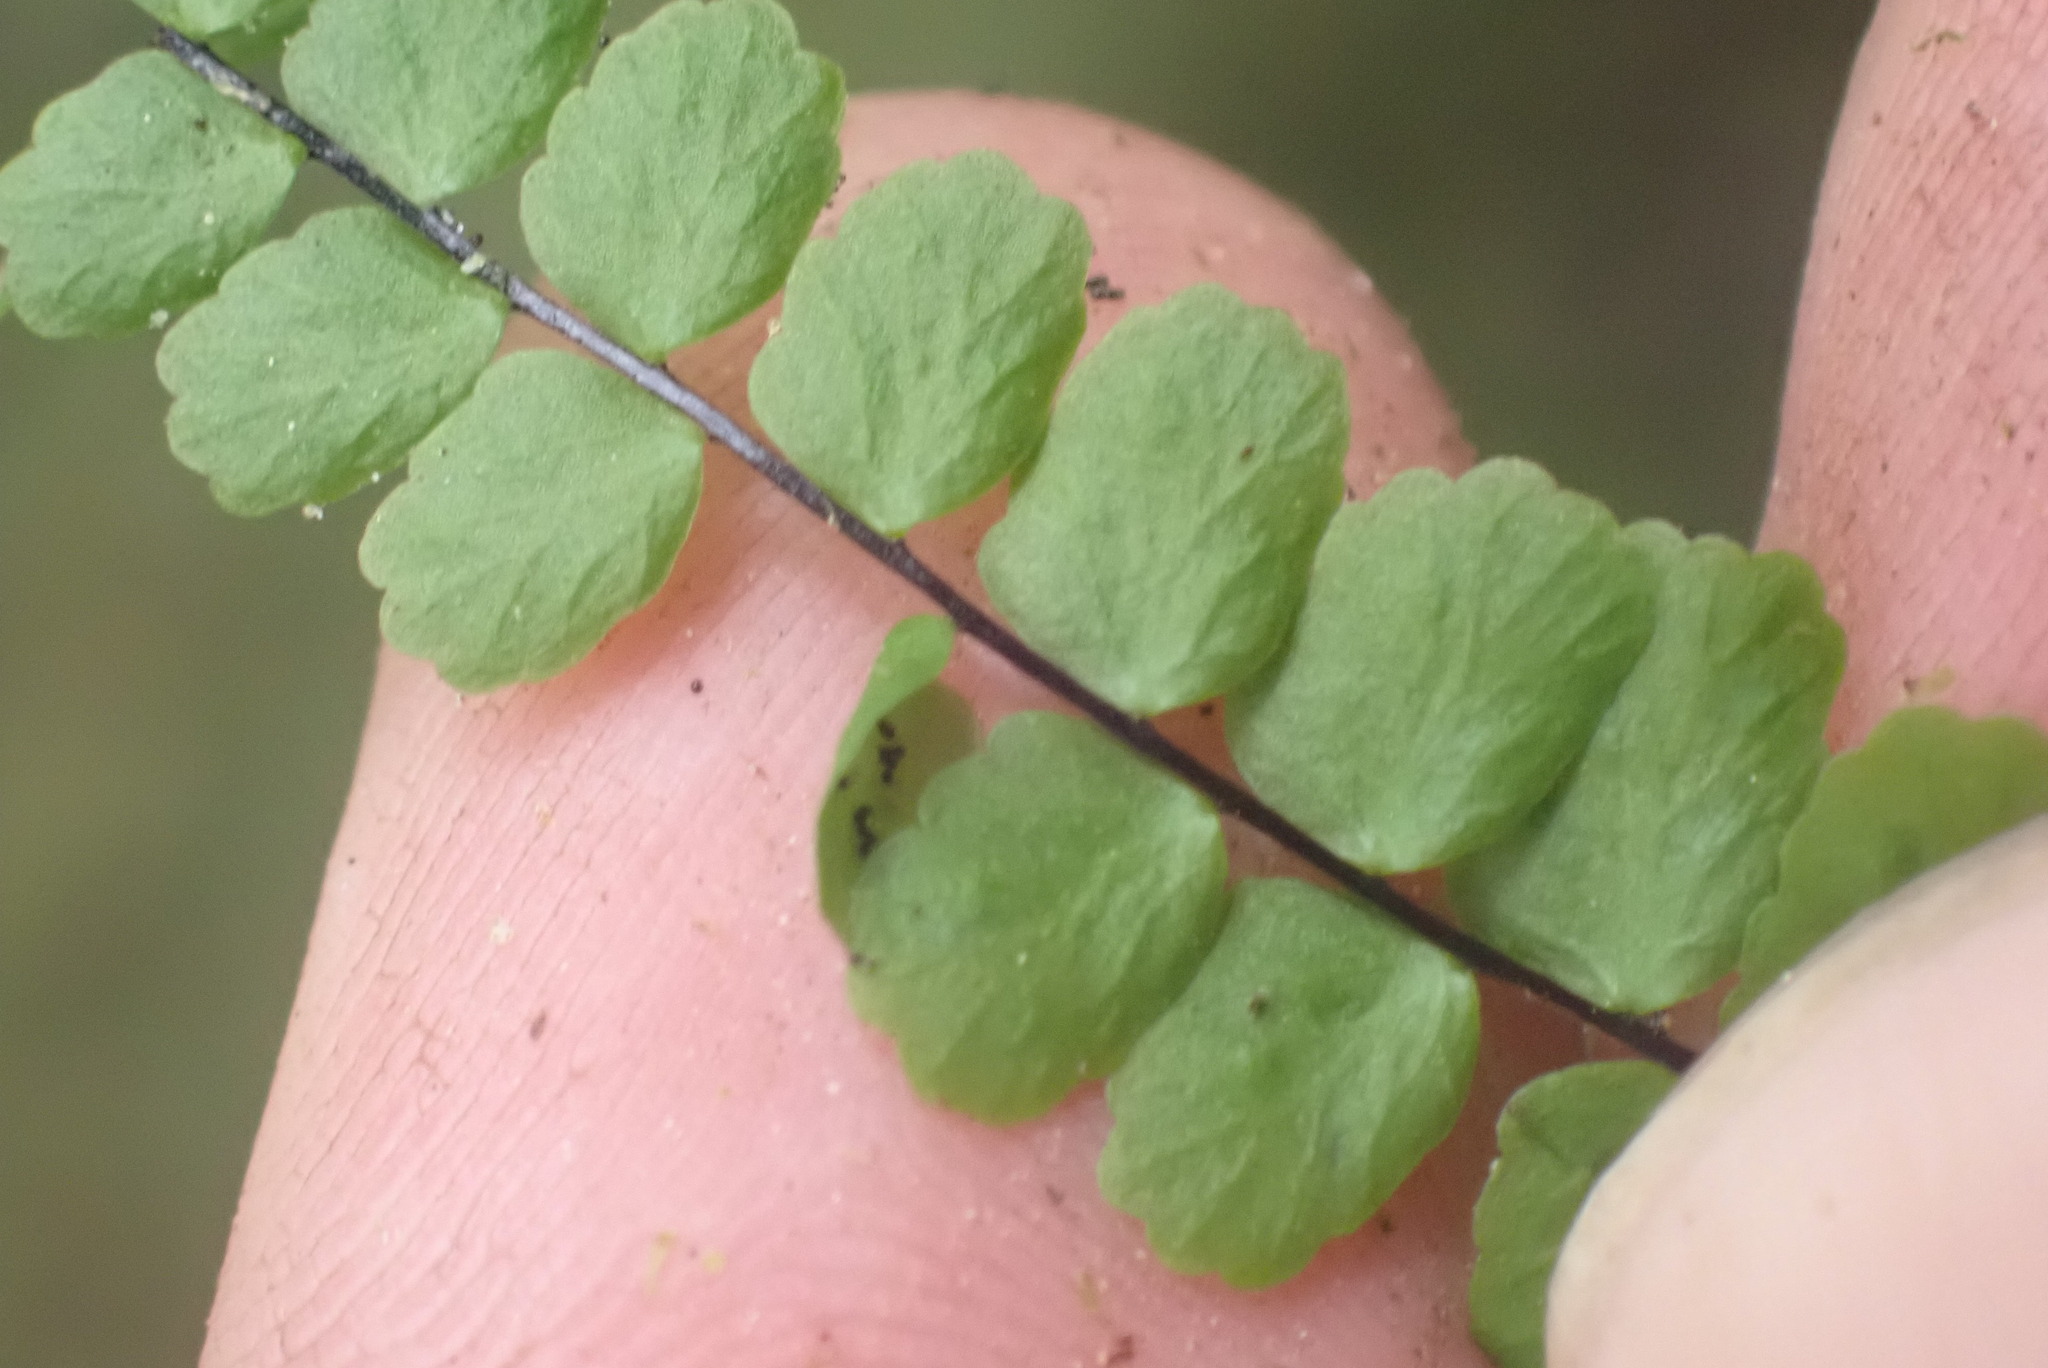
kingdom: Plantae
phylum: Tracheophyta
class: Polypodiopsida
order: Polypodiales
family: Aspleniaceae
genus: Asplenium
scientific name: Asplenium trichomanes
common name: Maidenhair spleenwort
